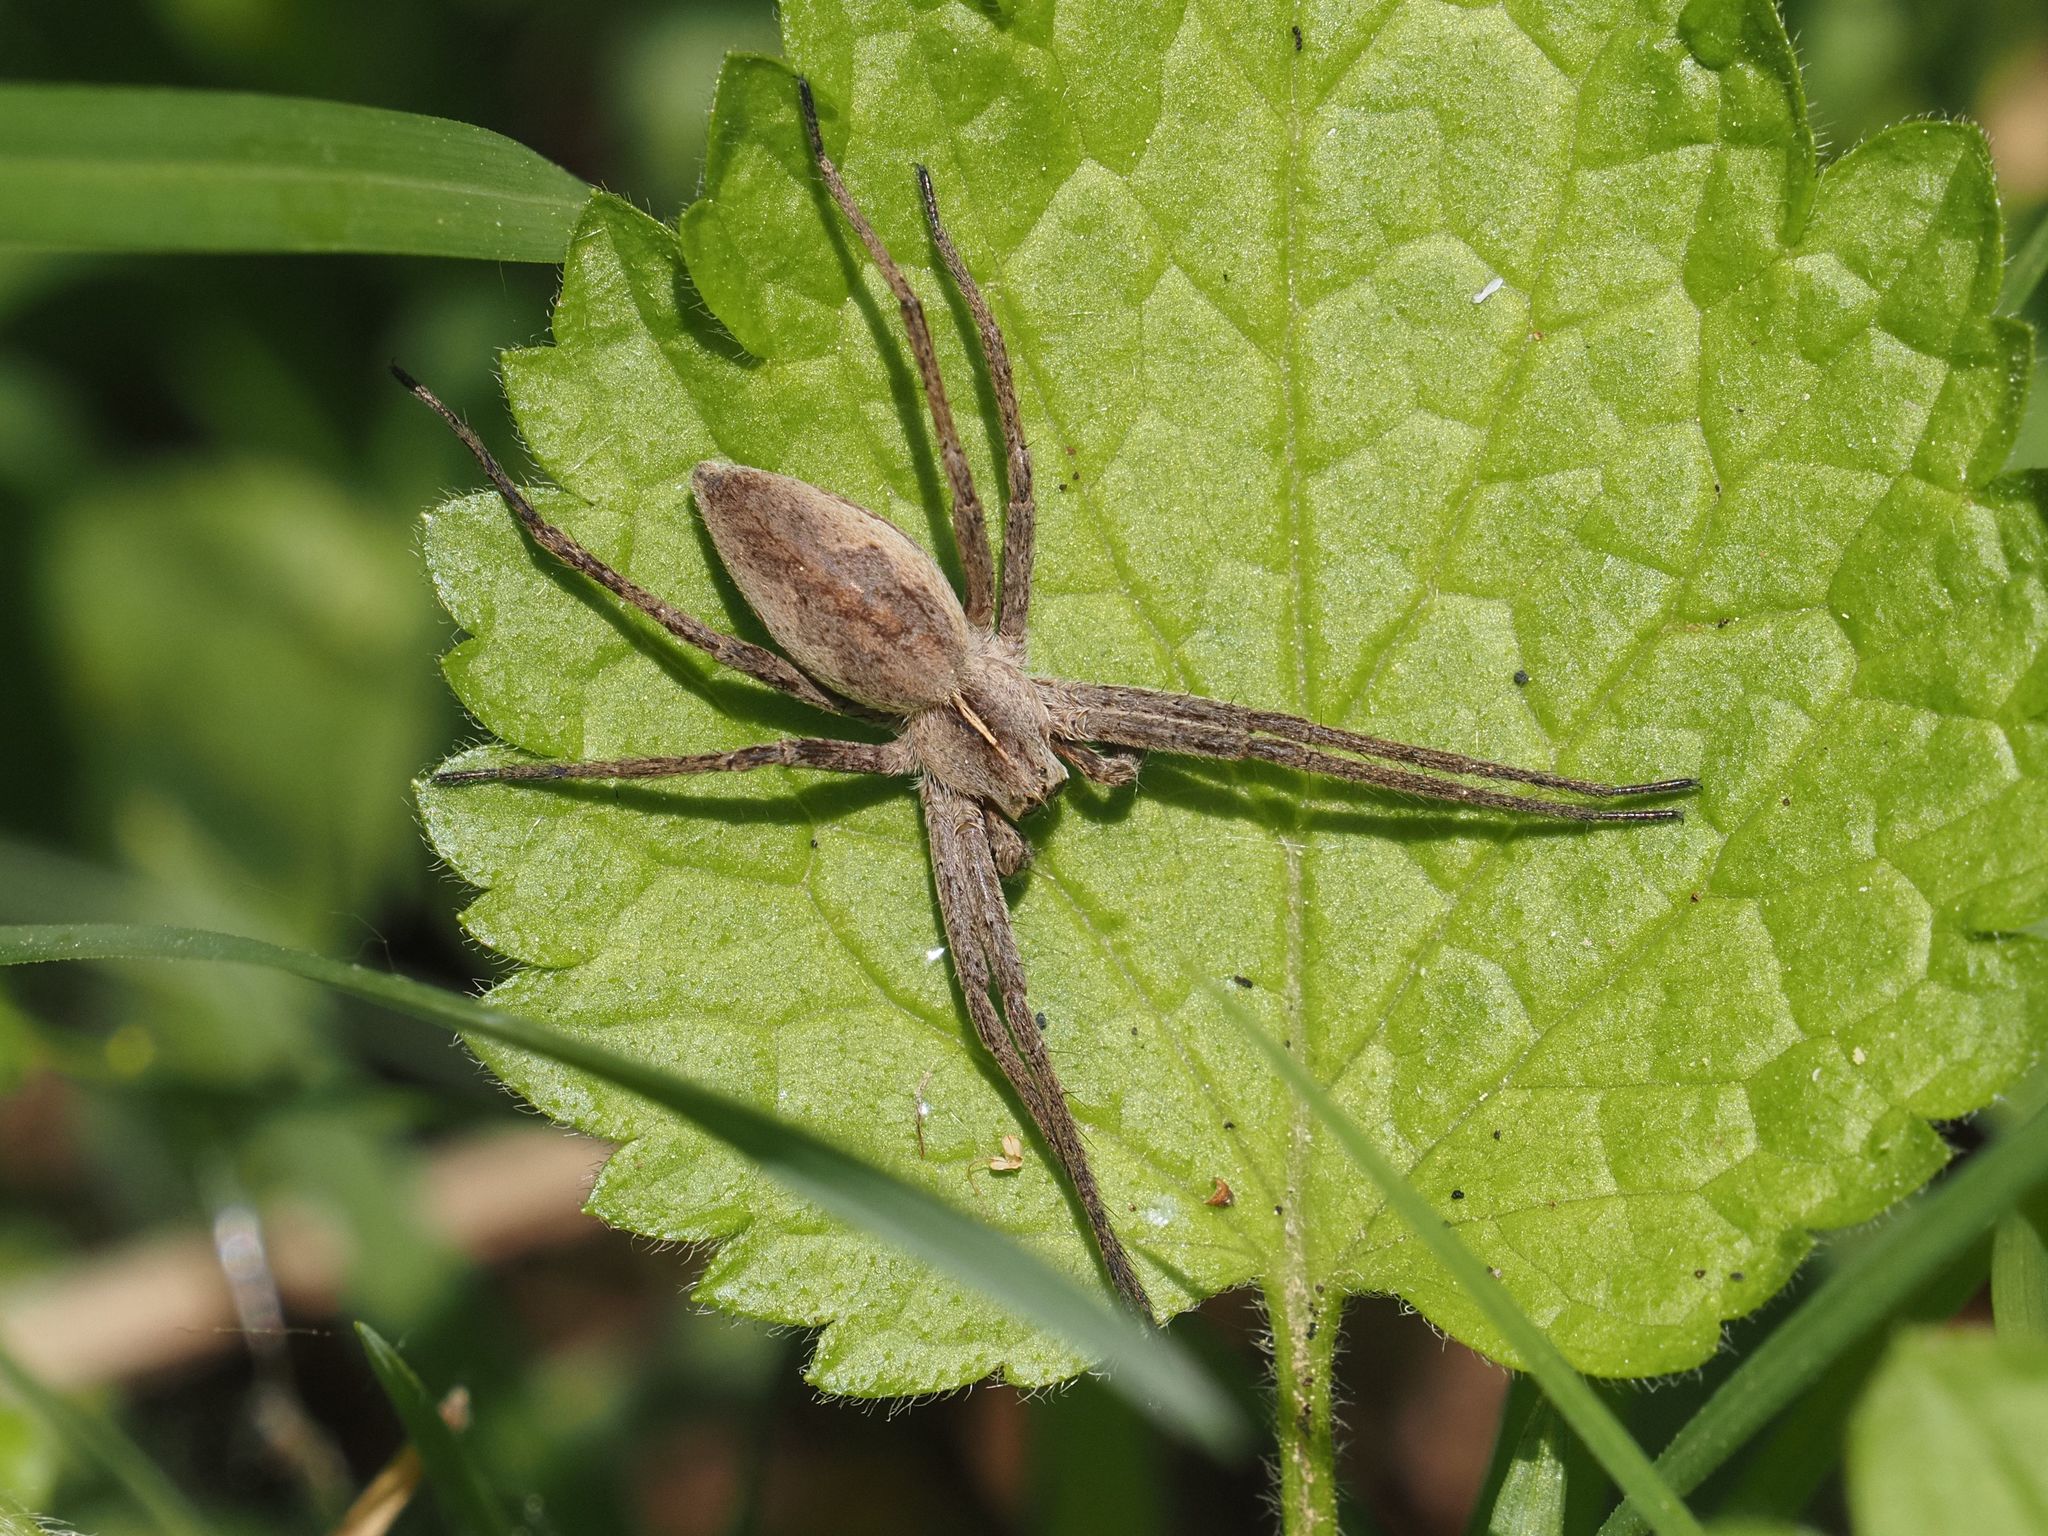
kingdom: Animalia
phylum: Arthropoda
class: Arachnida
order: Araneae
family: Pisauridae
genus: Pisaura
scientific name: Pisaura mirabilis
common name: Tent spider
